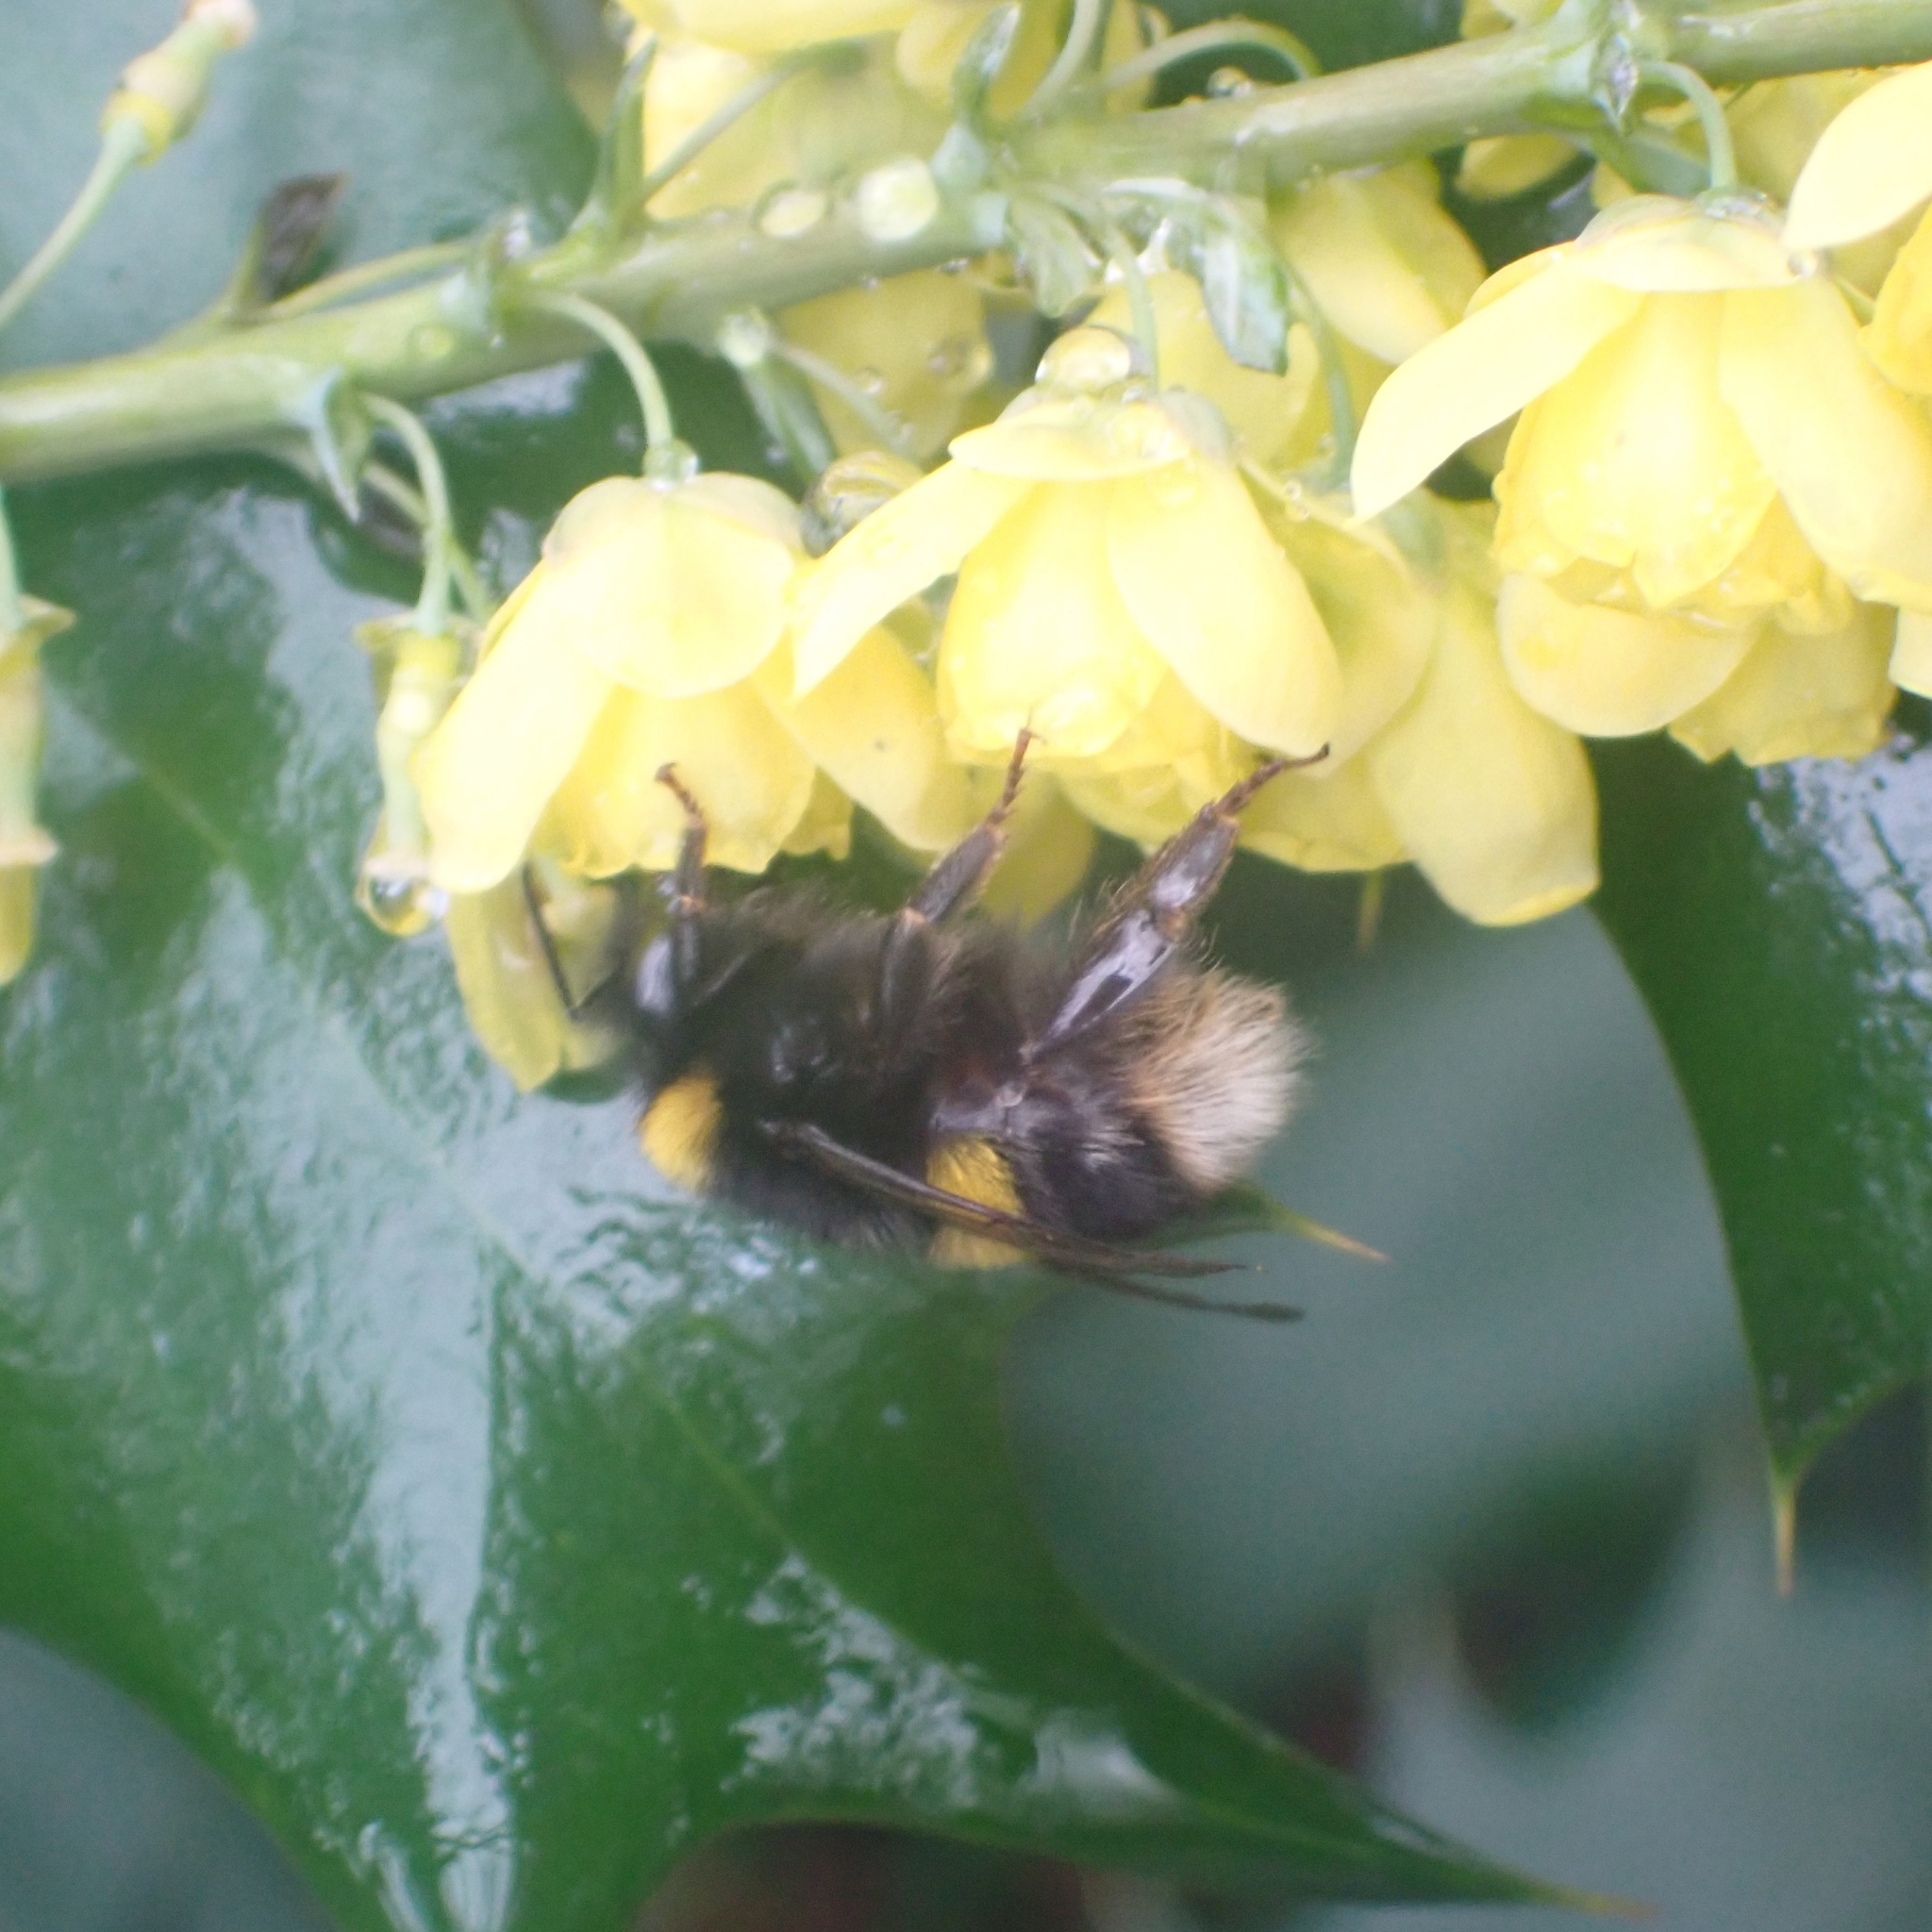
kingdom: Animalia
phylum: Arthropoda
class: Insecta
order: Hymenoptera
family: Apidae
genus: Bombus
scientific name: Bombus terrestris
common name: Buff-tailed bumblebee
